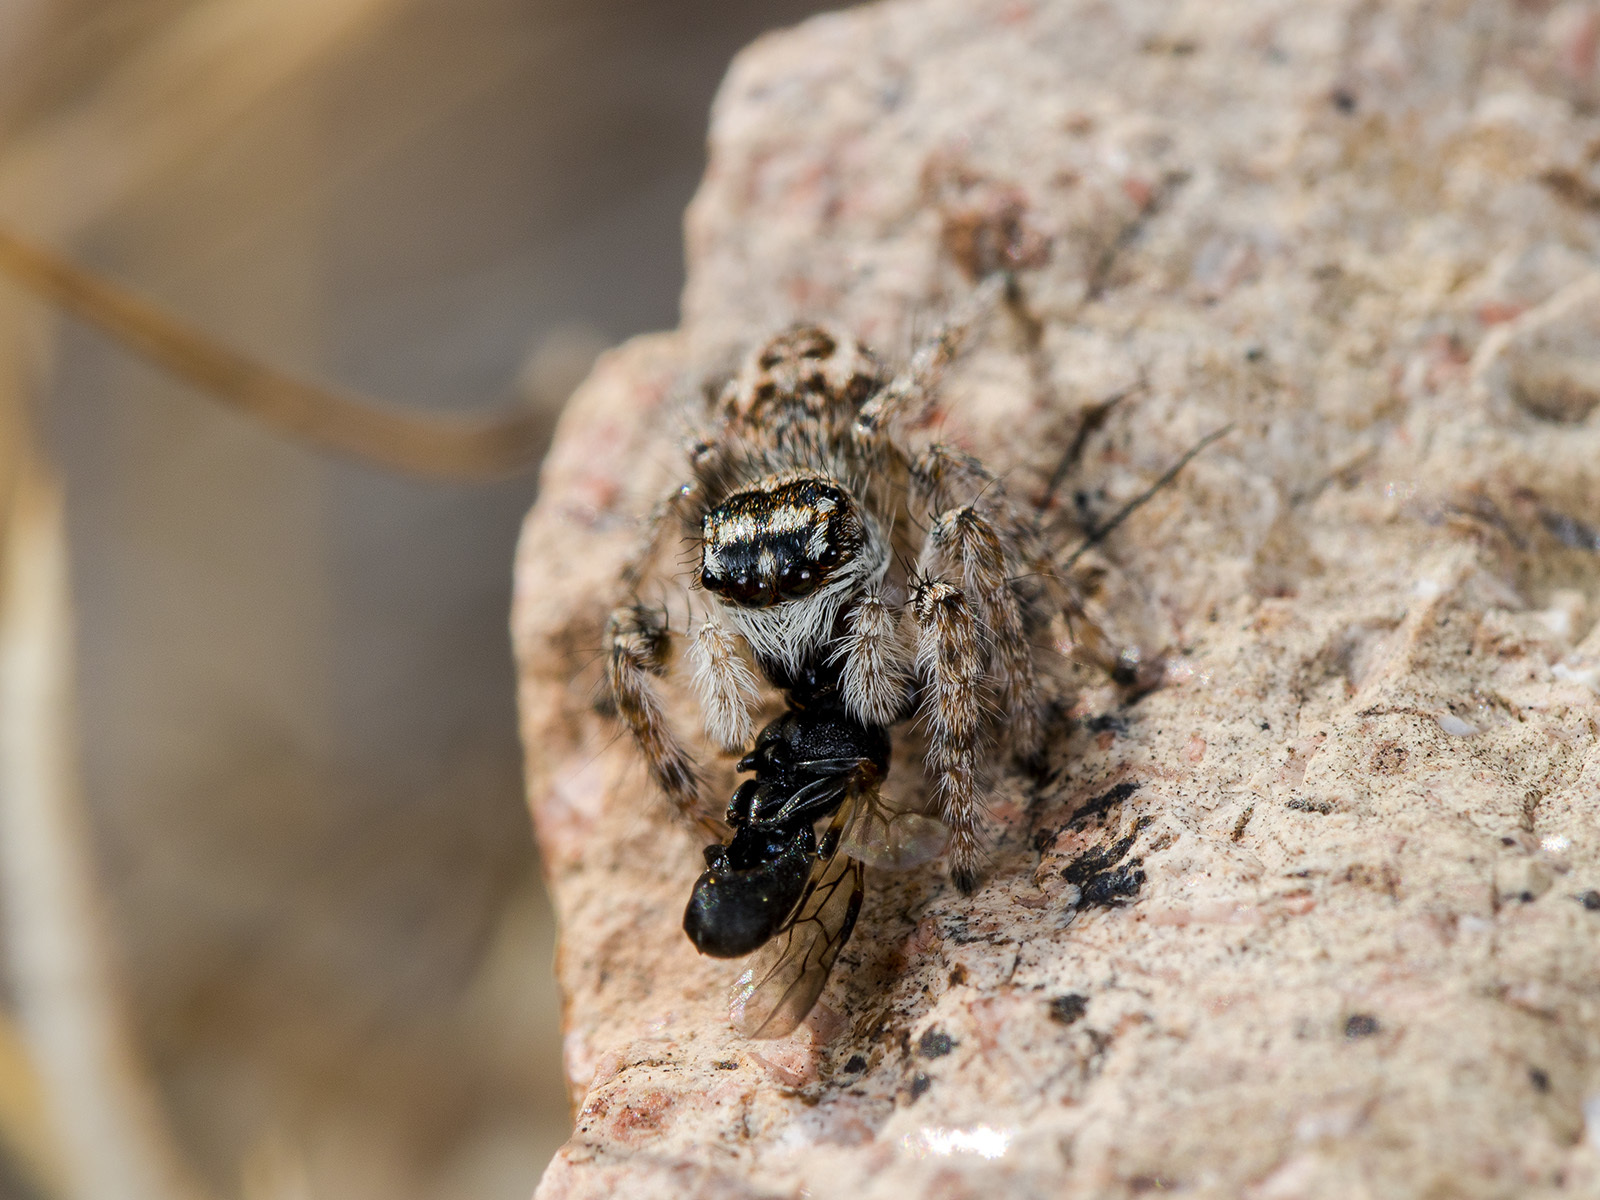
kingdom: Animalia
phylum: Arthropoda
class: Arachnida
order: Araneae
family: Salticidae
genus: Philaeus
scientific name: Philaeus chrysops
